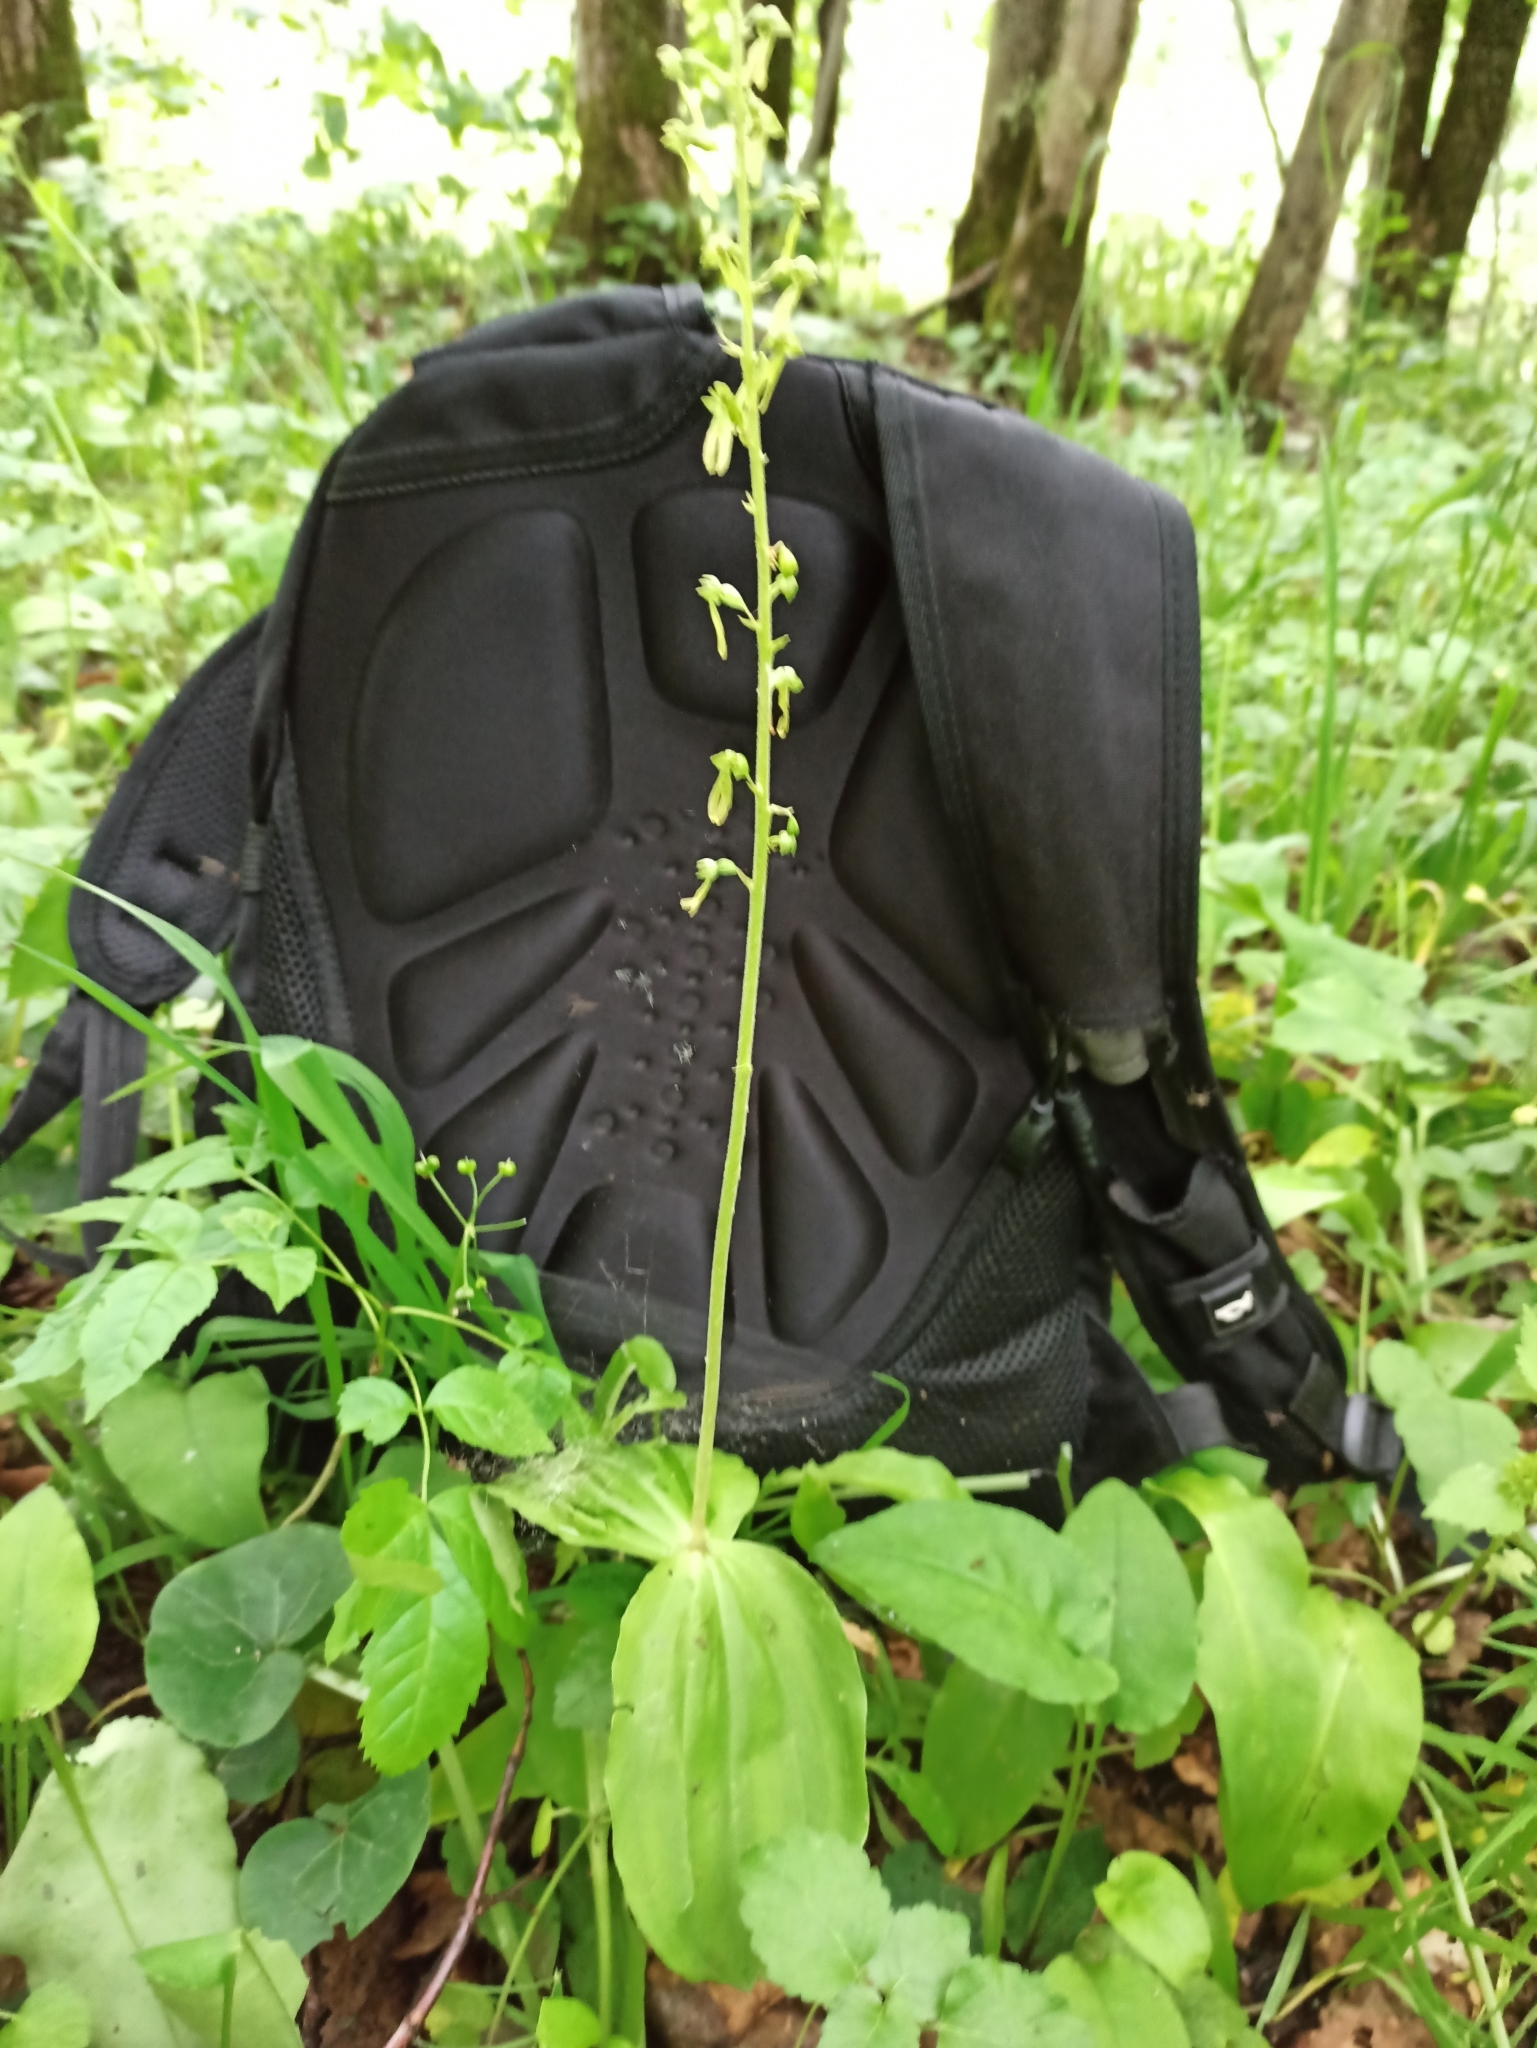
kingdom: Plantae
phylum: Tracheophyta
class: Liliopsida
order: Asparagales
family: Orchidaceae
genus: Neottia
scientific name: Neottia ovata
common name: Common twayblade
